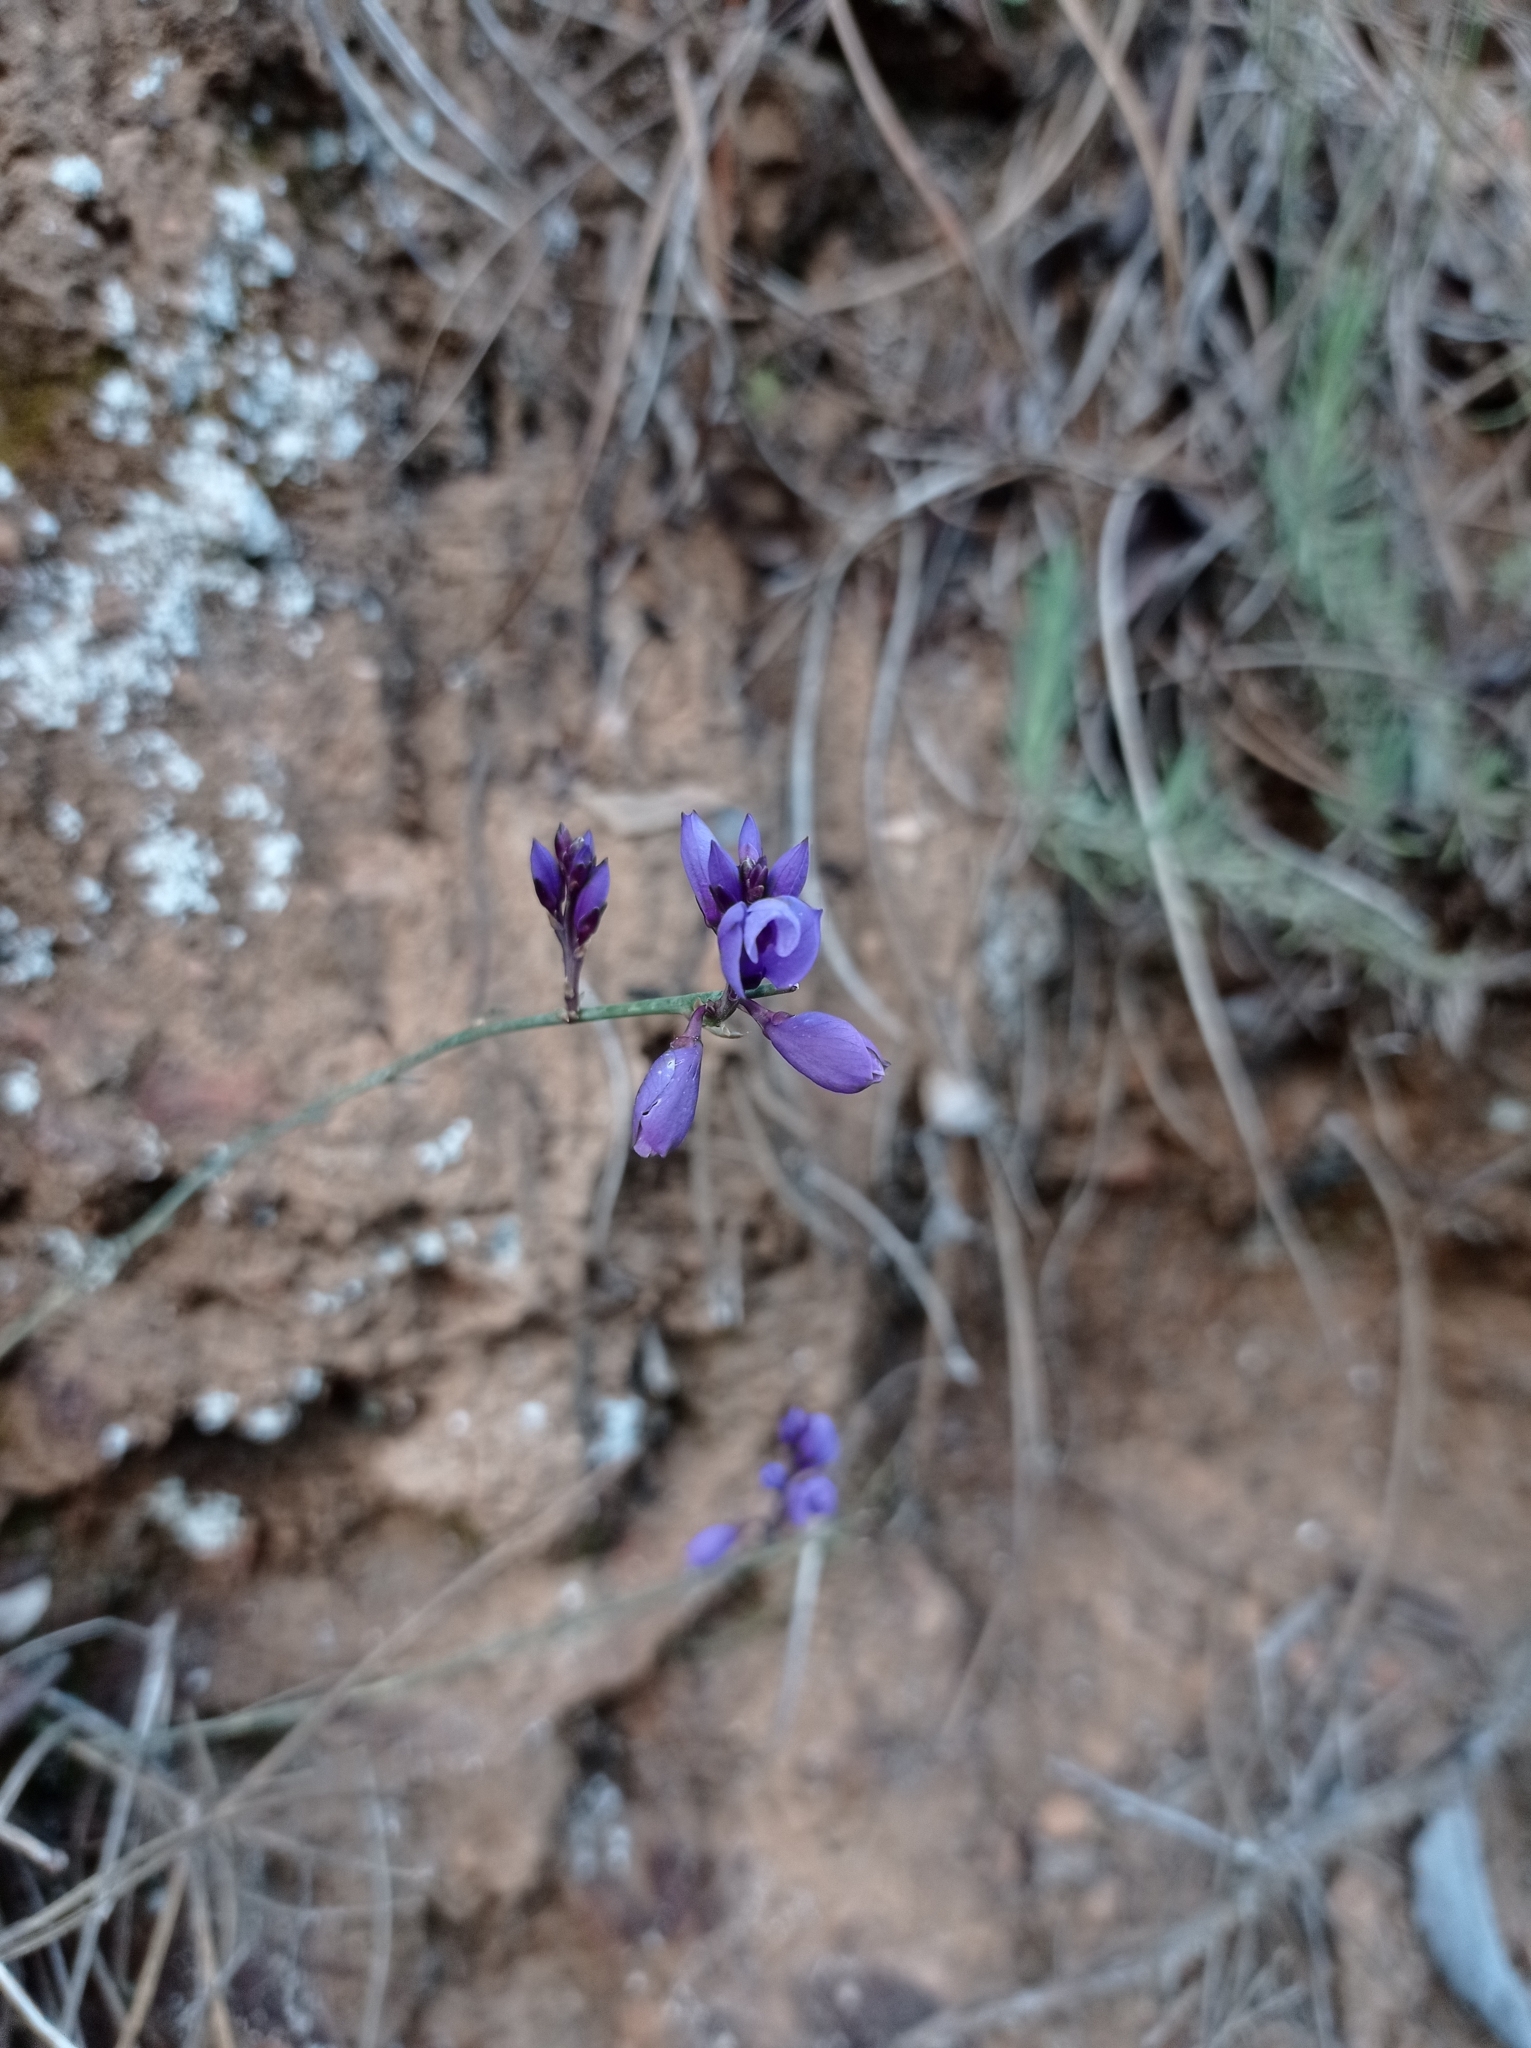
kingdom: Plantae
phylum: Tracheophyta
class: Magnoliopsida
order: Fabales
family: Polygalaceae
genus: Polygala
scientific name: Polygala microphylla
